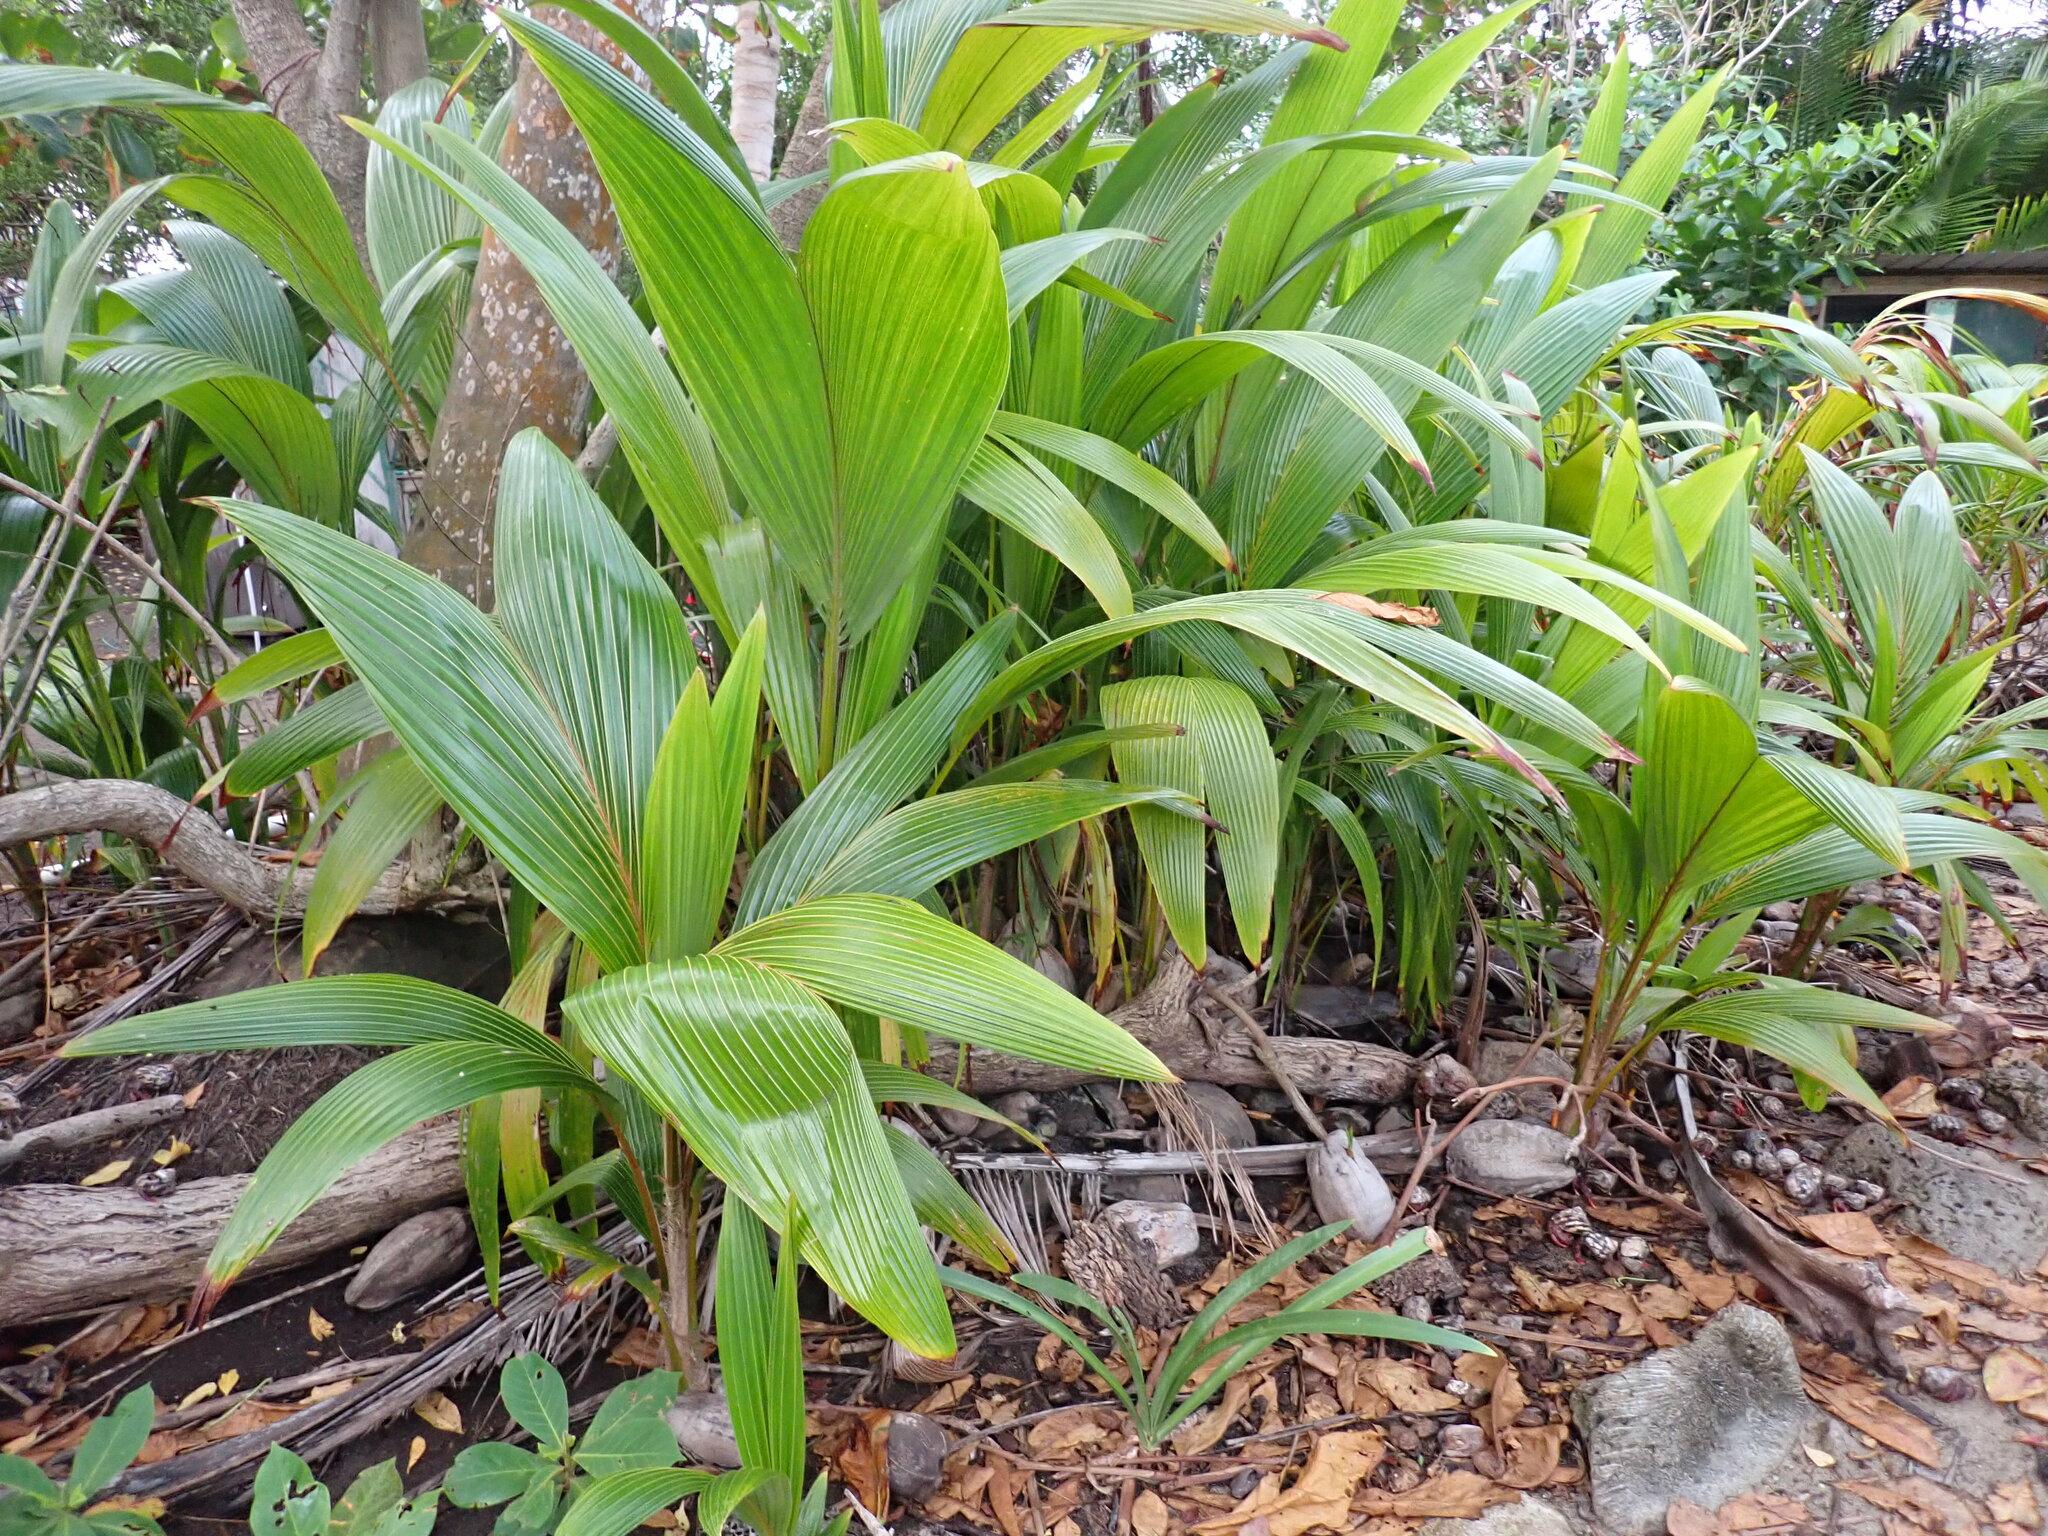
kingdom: Plantae
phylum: Tracheophyta
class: Liliopsida
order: Arecales
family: Arecaceae
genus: Cocos
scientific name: Cocos nucifera
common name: Coconut palm
